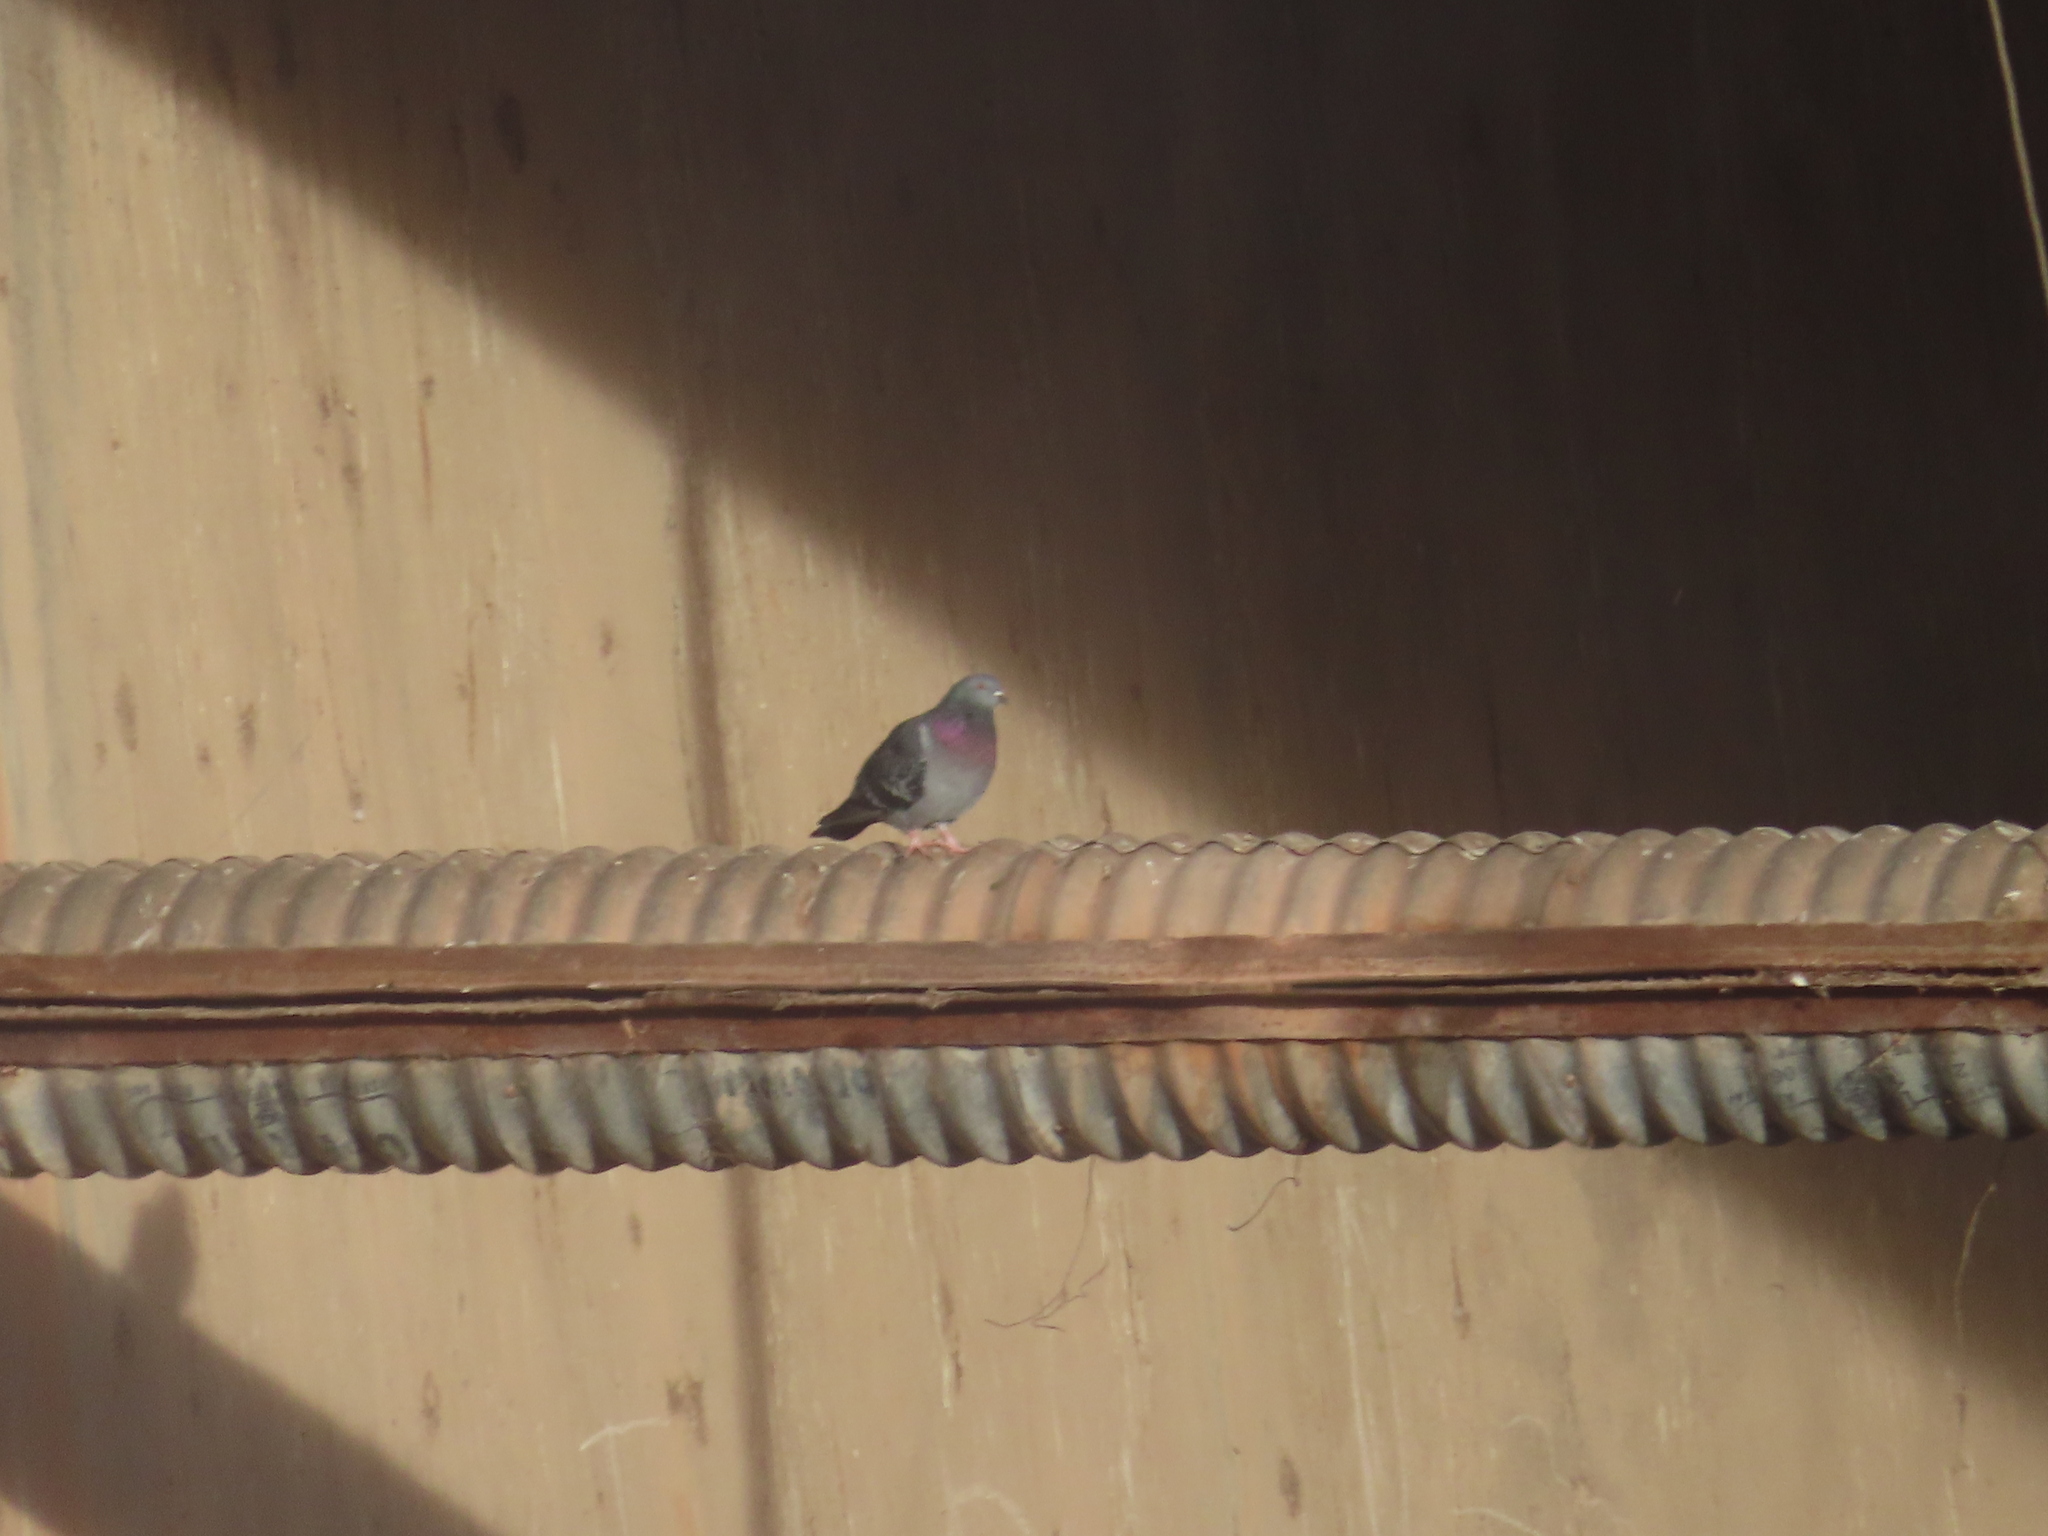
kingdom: Animalia
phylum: Chordata
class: Aves
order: Columbiformes
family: Columbidae
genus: Columba
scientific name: Columba livia
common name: Rock pigeon
